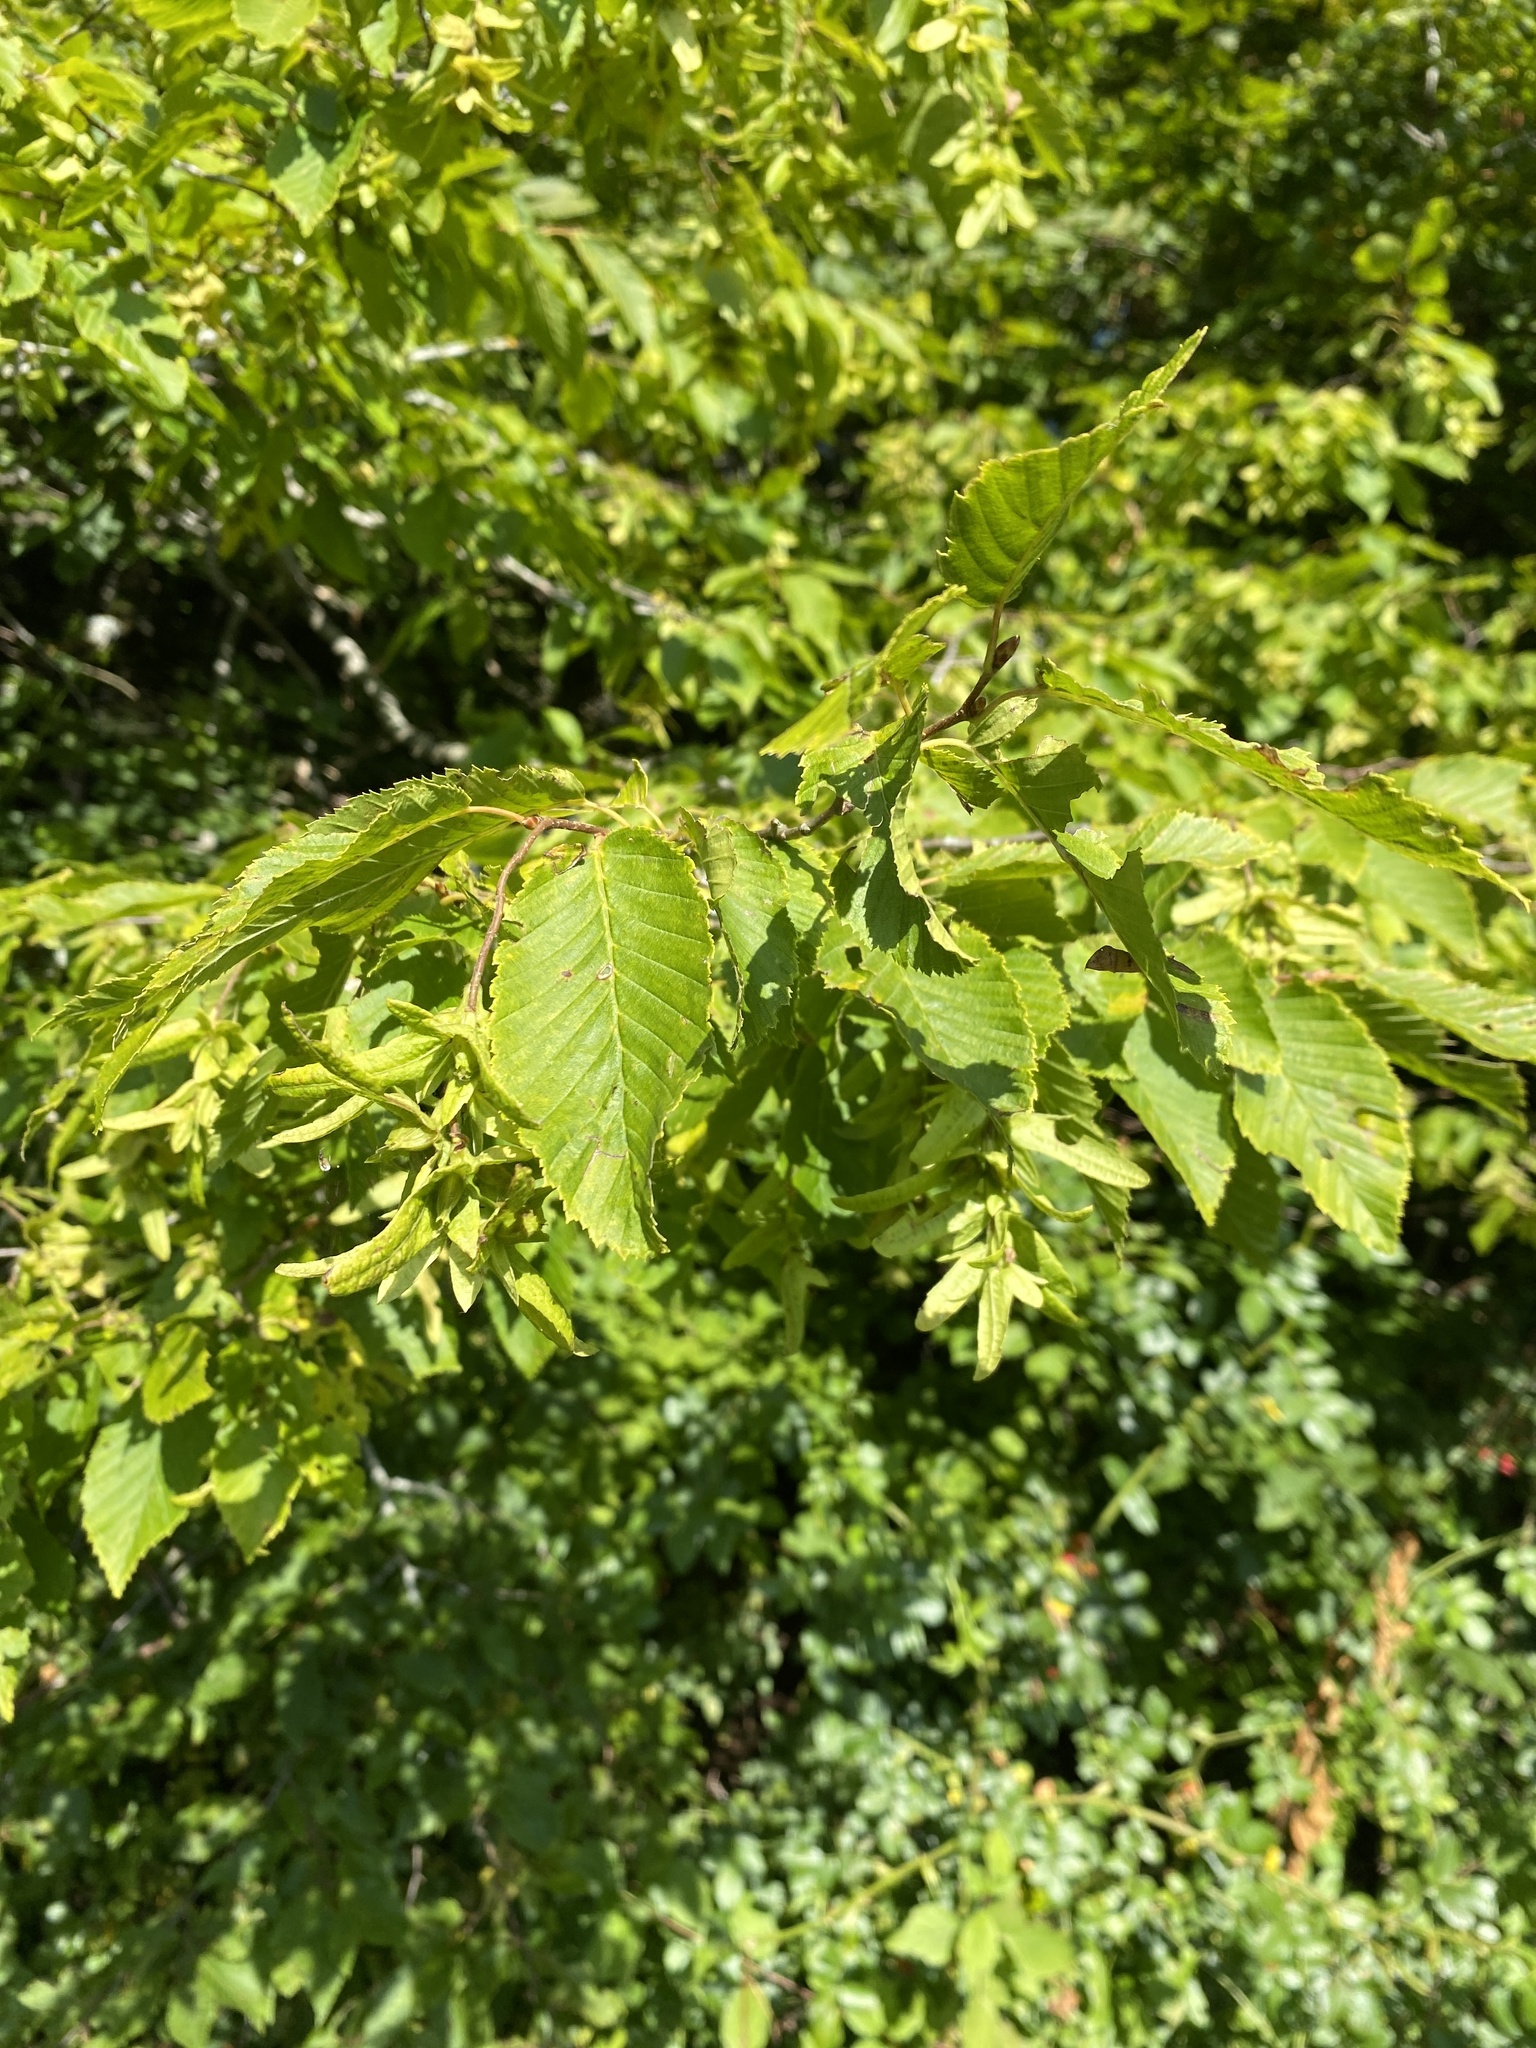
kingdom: Plantae
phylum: Tracheophyta
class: Magnoliopsida
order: Fagales
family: Betulaceae
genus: Carpinus
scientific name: Carpinus betulus
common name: Hornbeam
